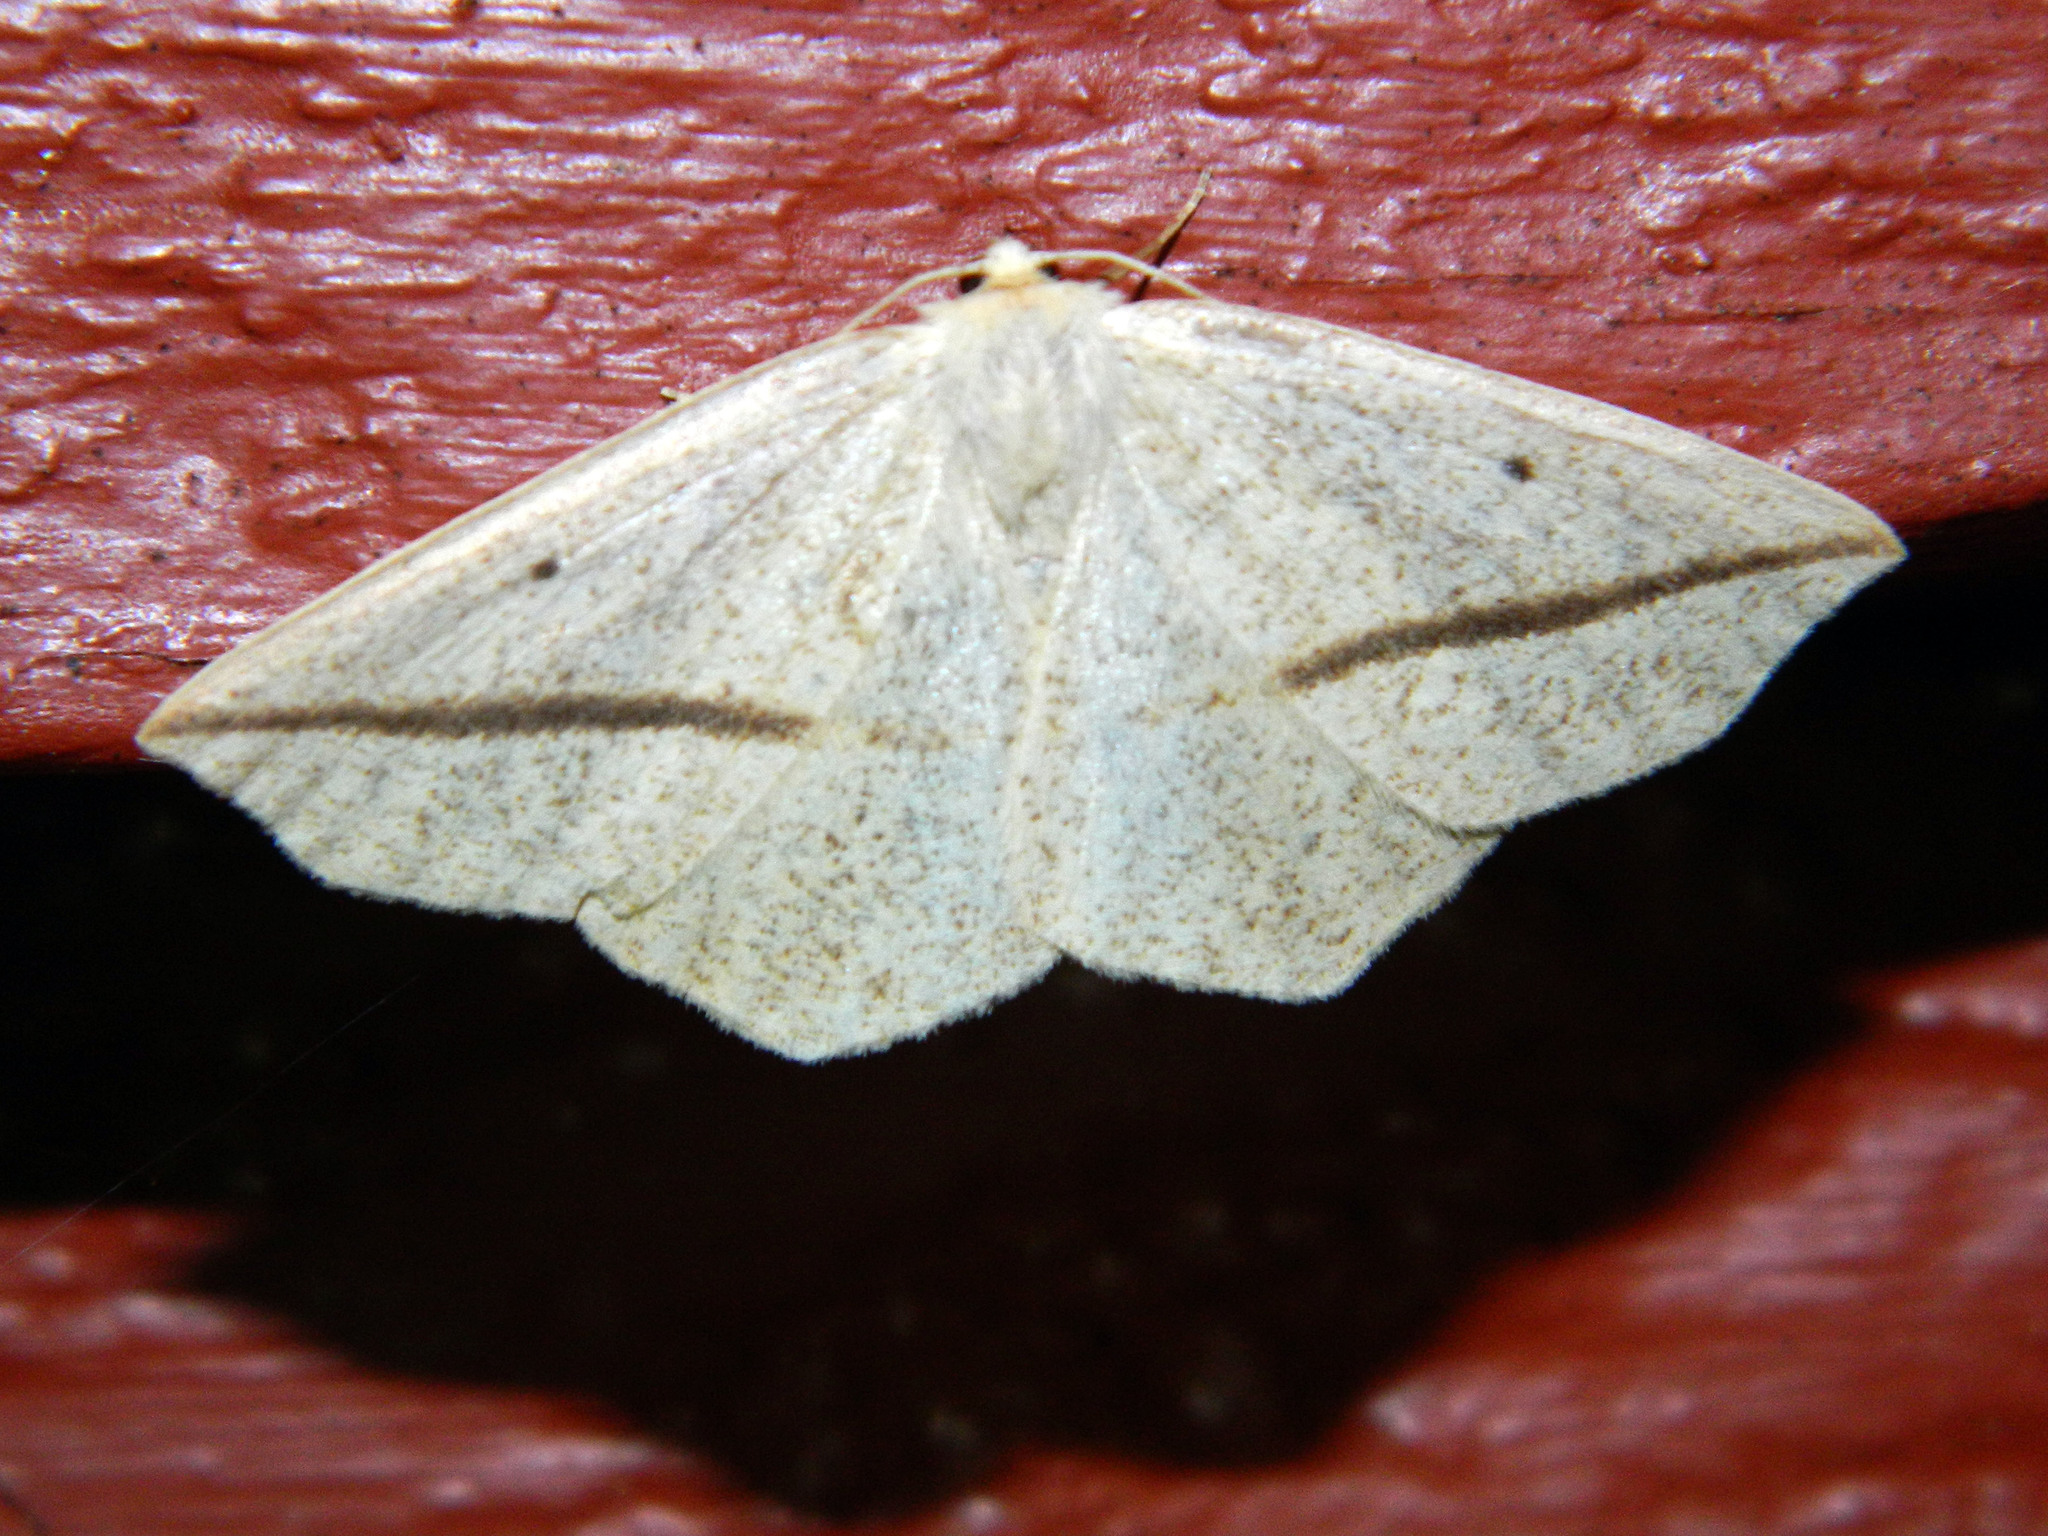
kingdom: Animalia
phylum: Arthropoda
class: Insecta
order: Lepidoptera
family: Geometridae
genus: Tetracis
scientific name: Tetracis crocallata
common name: Yellow slant-line
